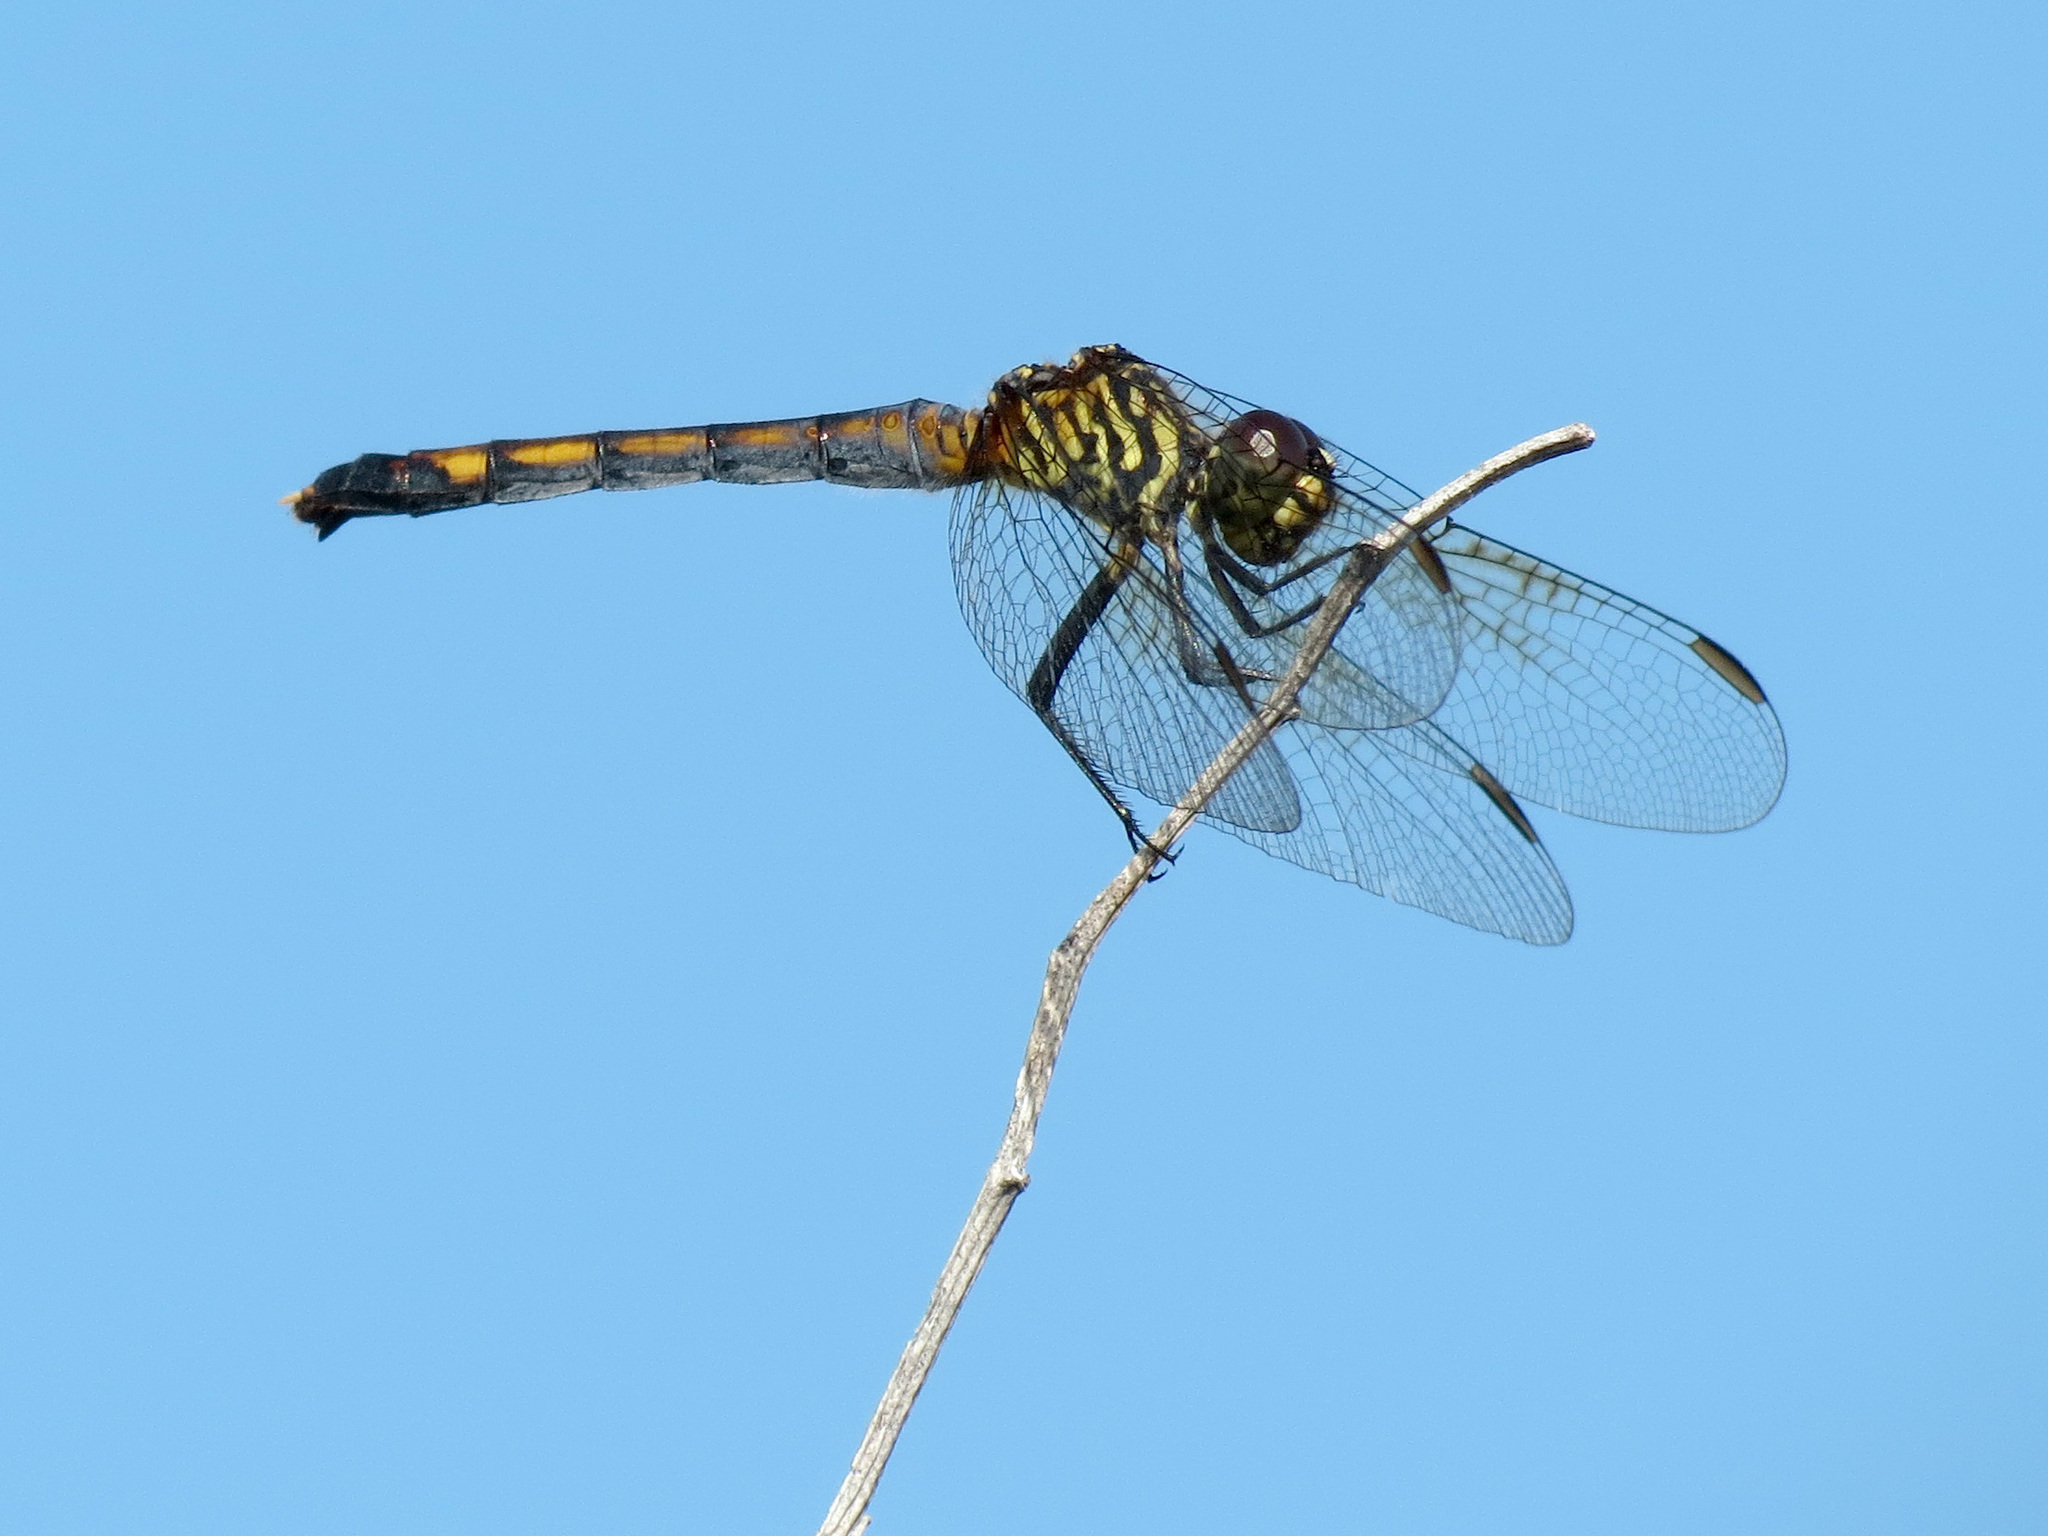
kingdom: Animalia
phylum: Arthropoda
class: Insecta
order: Odonata
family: Libellulidae
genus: Erythrodiplax
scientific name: Erythrodiplax berenice
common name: Seaside dragonlet
